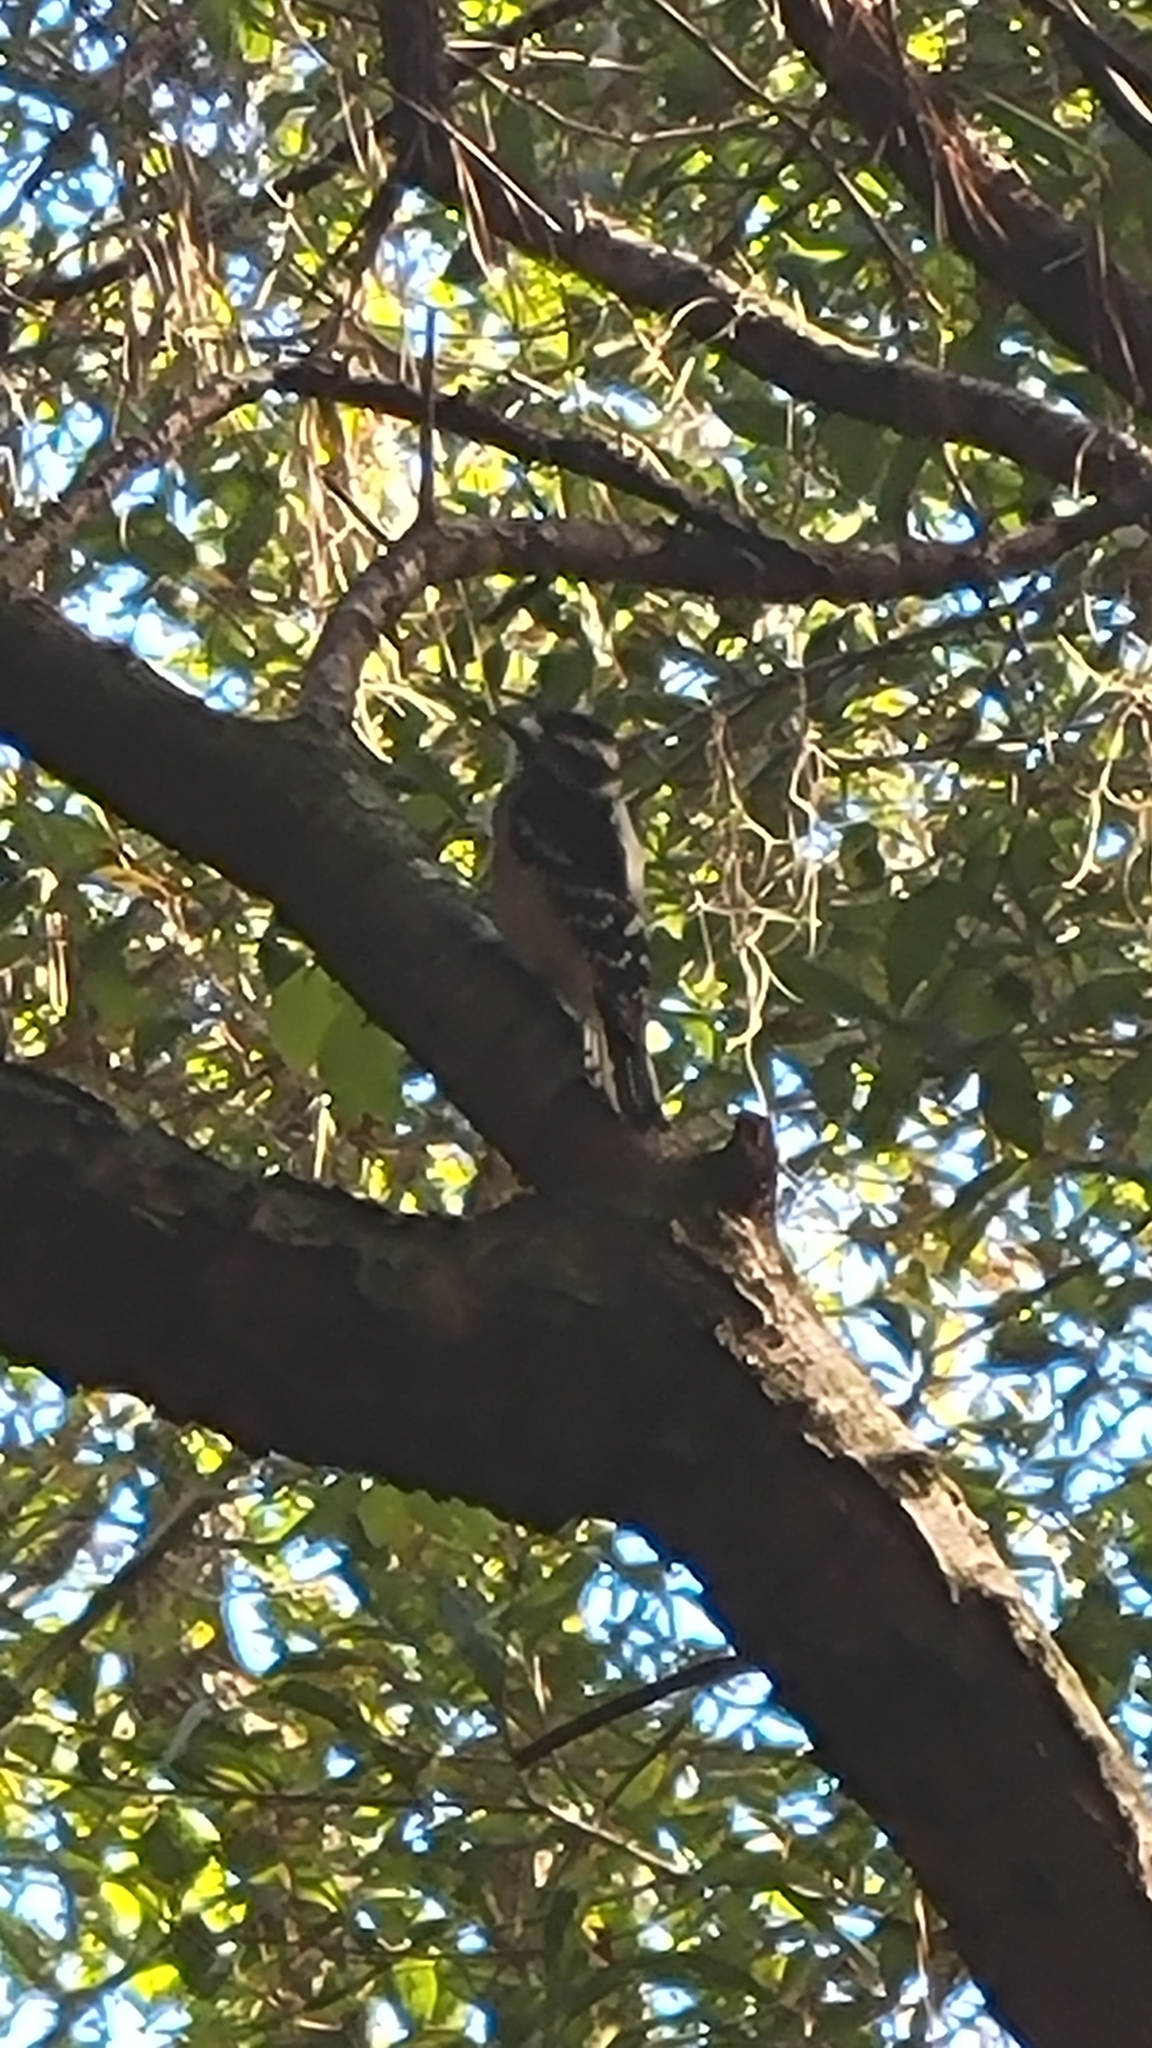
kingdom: Animalia
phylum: Chordata
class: Aves
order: Piciformes
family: Picidae
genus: Dryobates
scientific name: Dryobates pubescens
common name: Downy woodpecker
